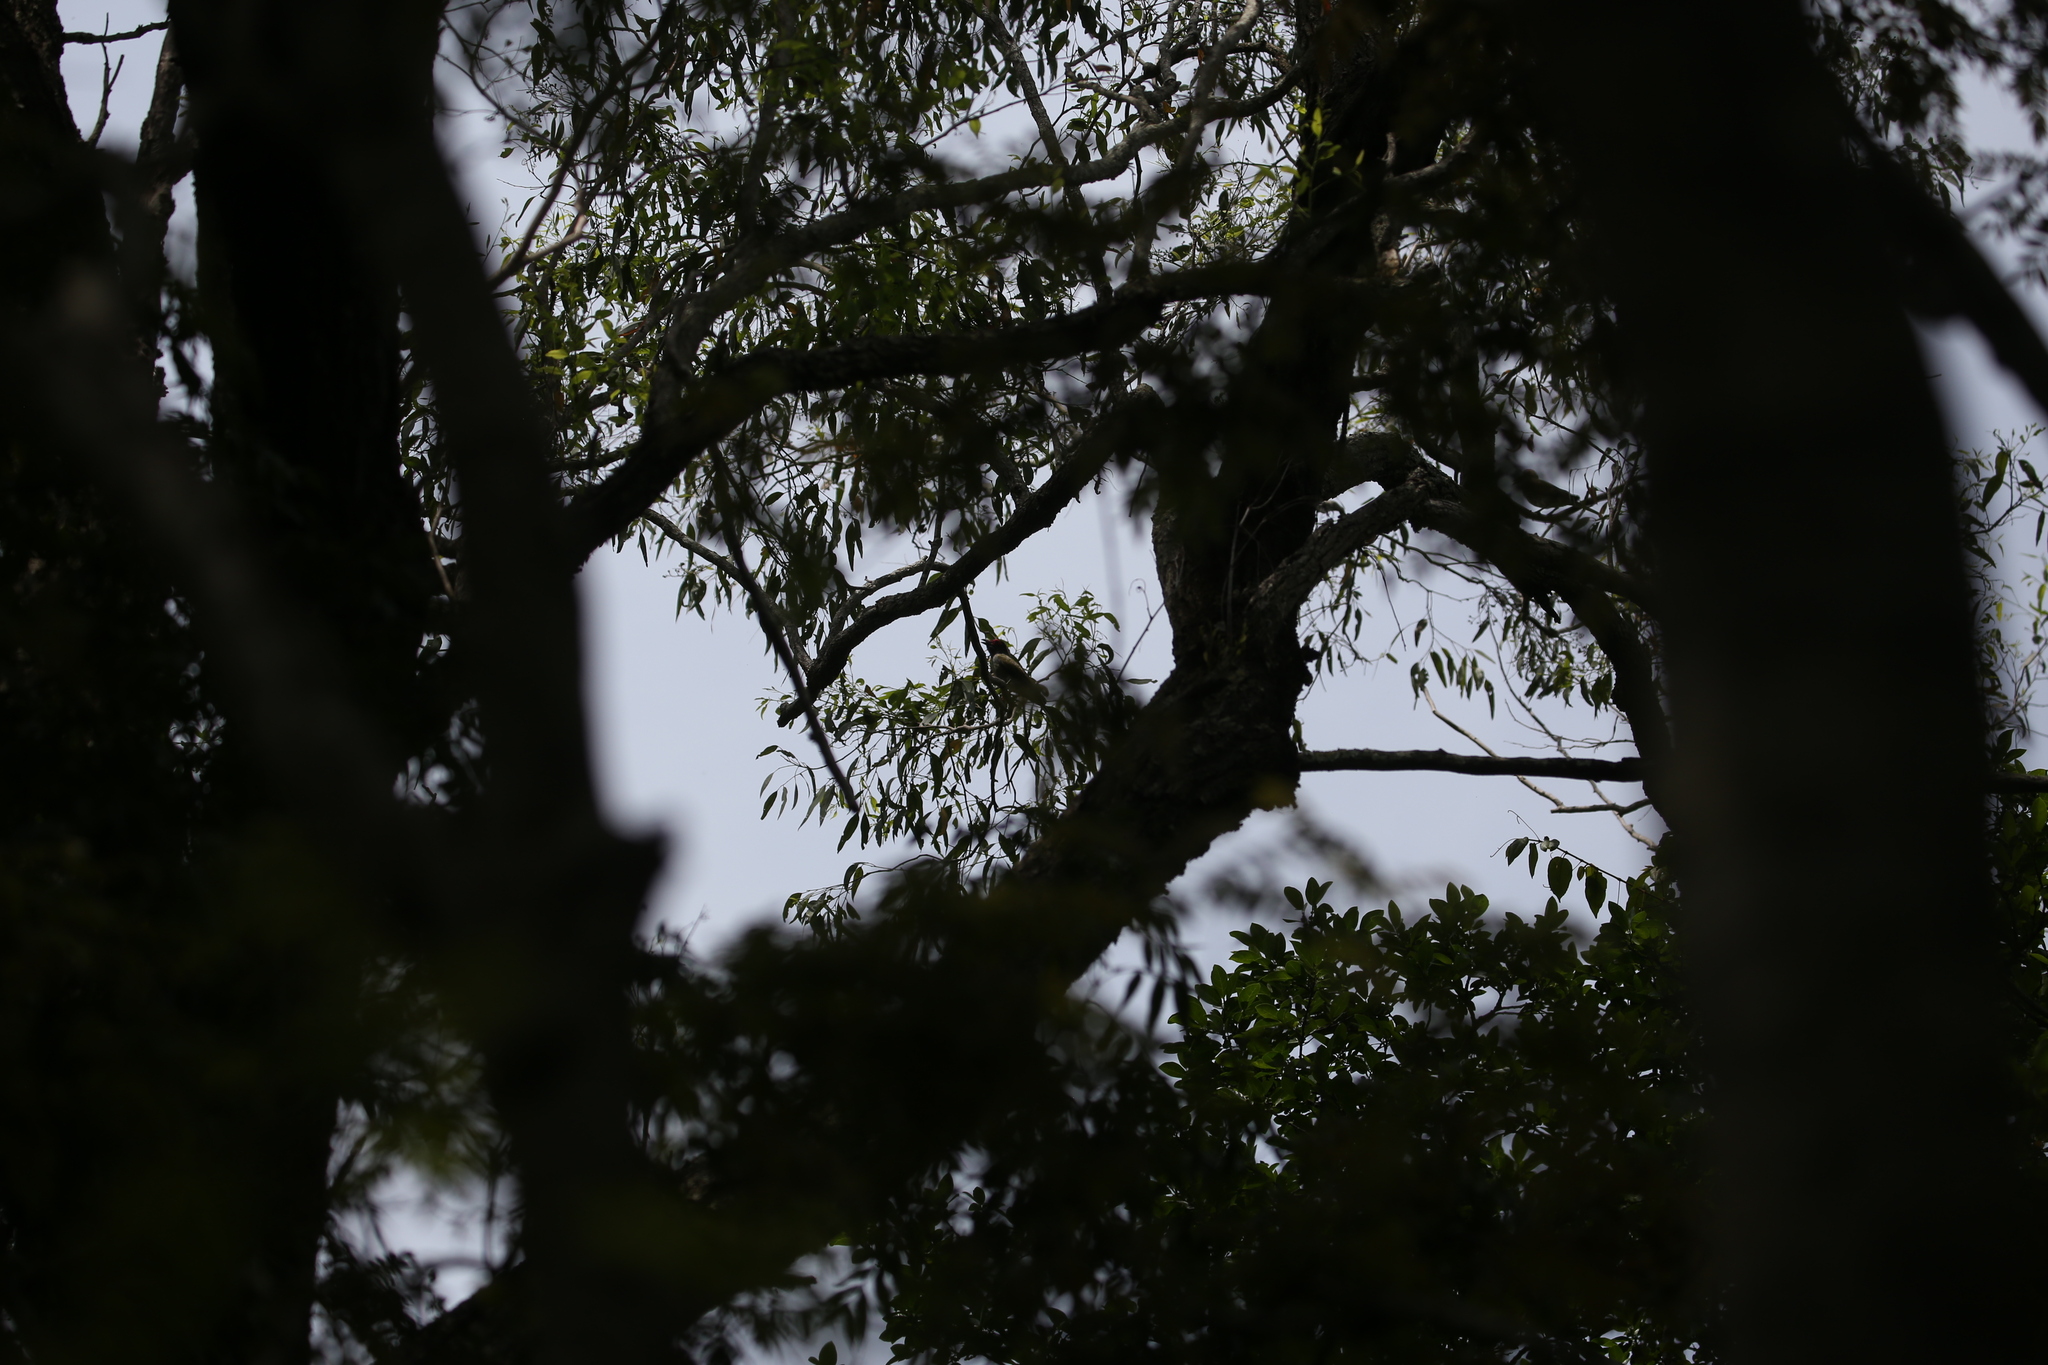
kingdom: Animalia
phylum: Chordata
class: Aves
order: Passeriformes
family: Oriolidae
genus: Sphecotheres
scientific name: Sphecotheres vieilloti
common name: Australasian figbird
